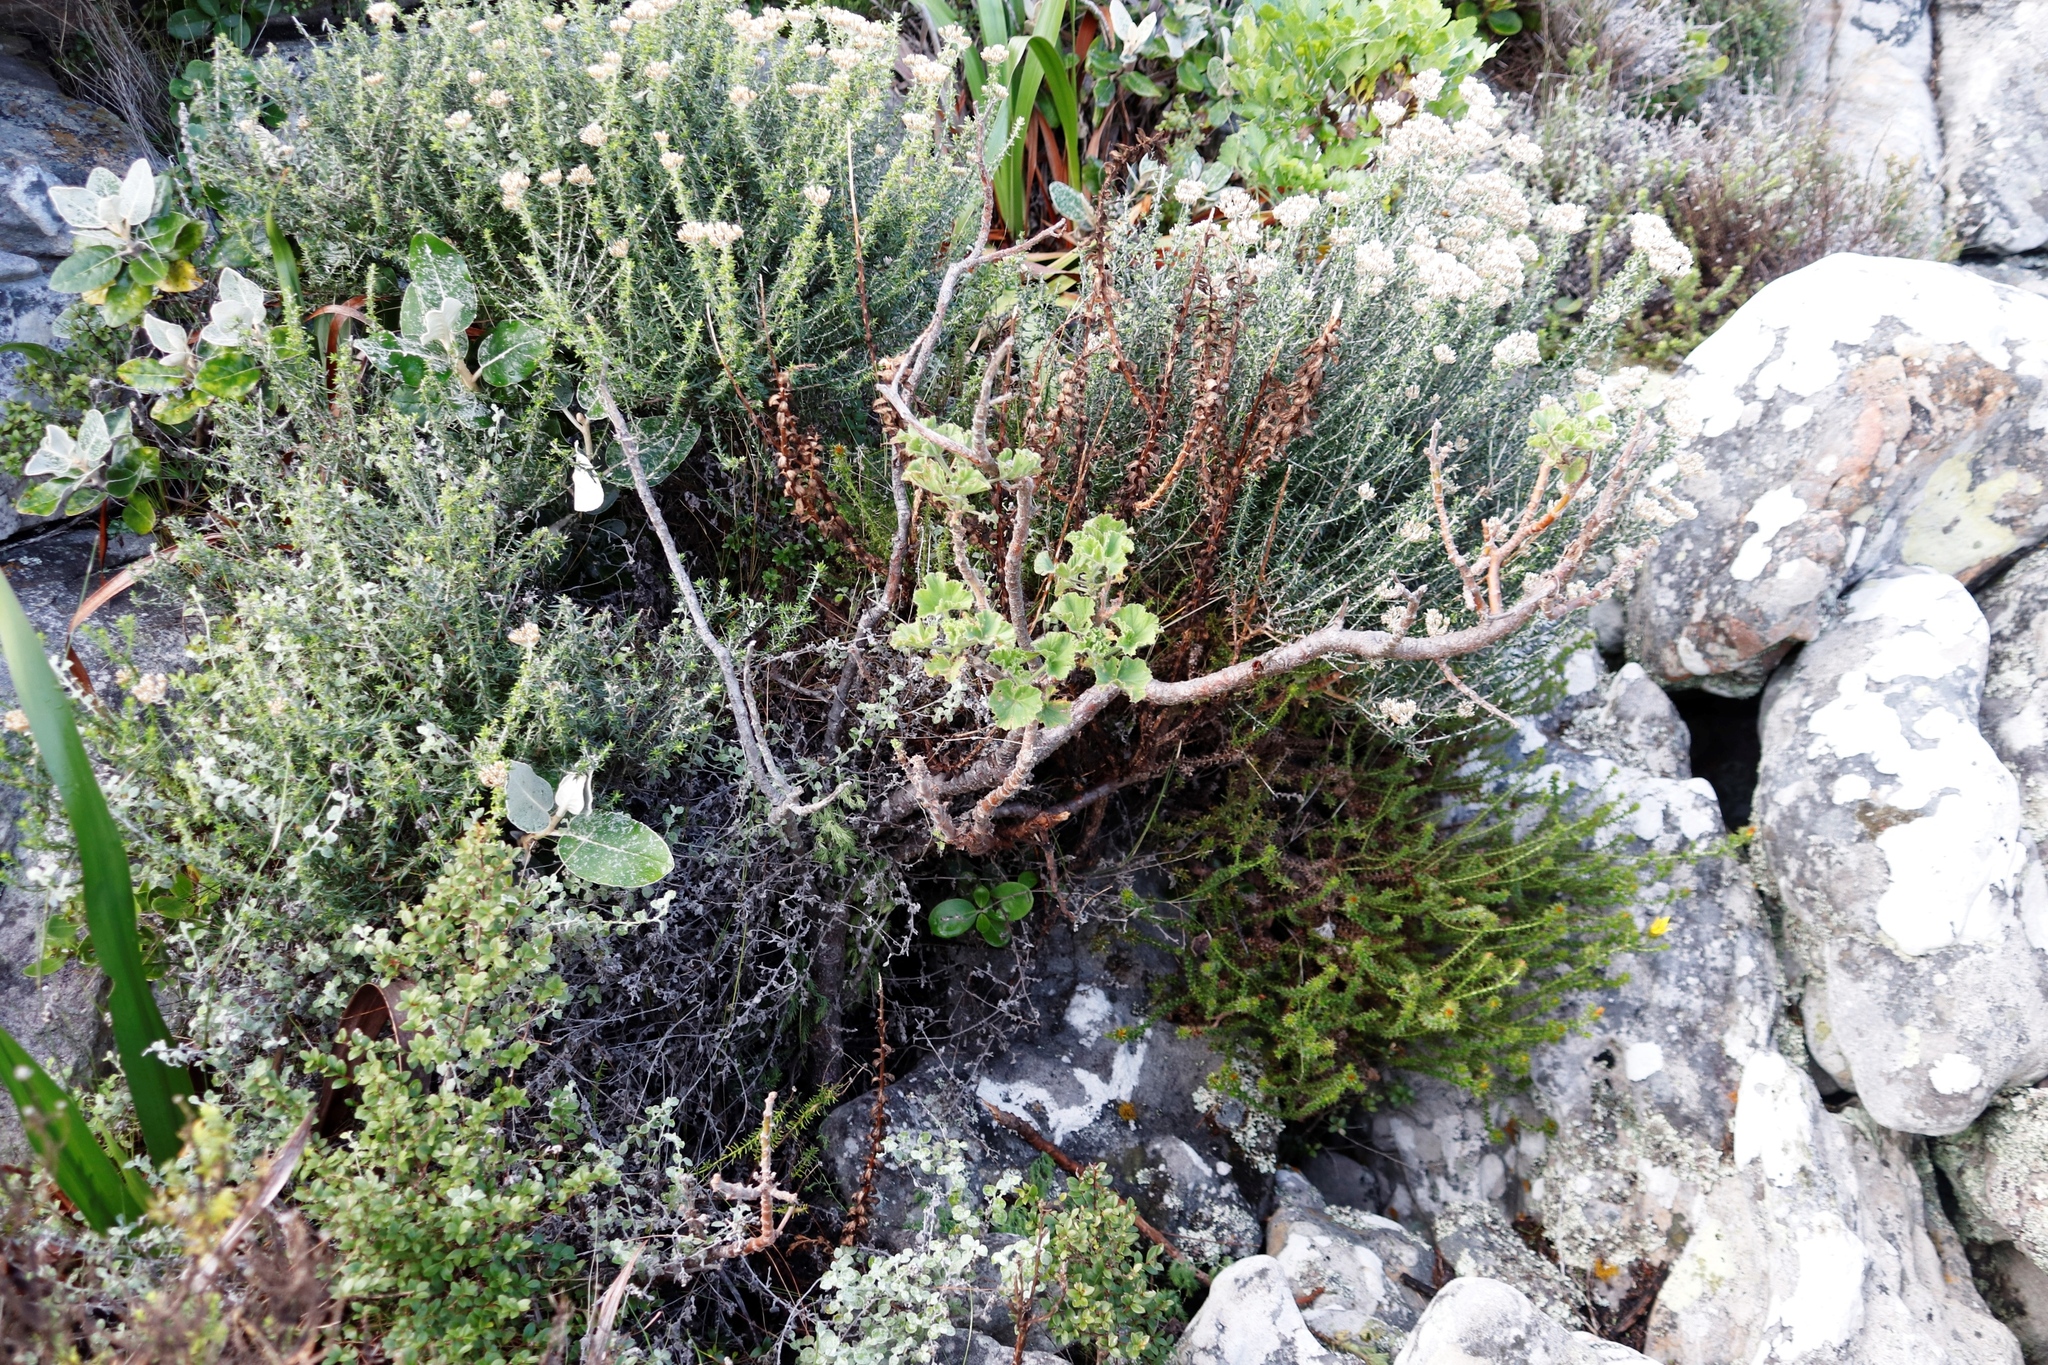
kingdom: Plantae
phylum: Tracheophyta
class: Magnoliopsida
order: Geraniales
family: Geraniaceae
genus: Pelargonium
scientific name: Pelargonium cucullatum
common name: Tree pelargonium
